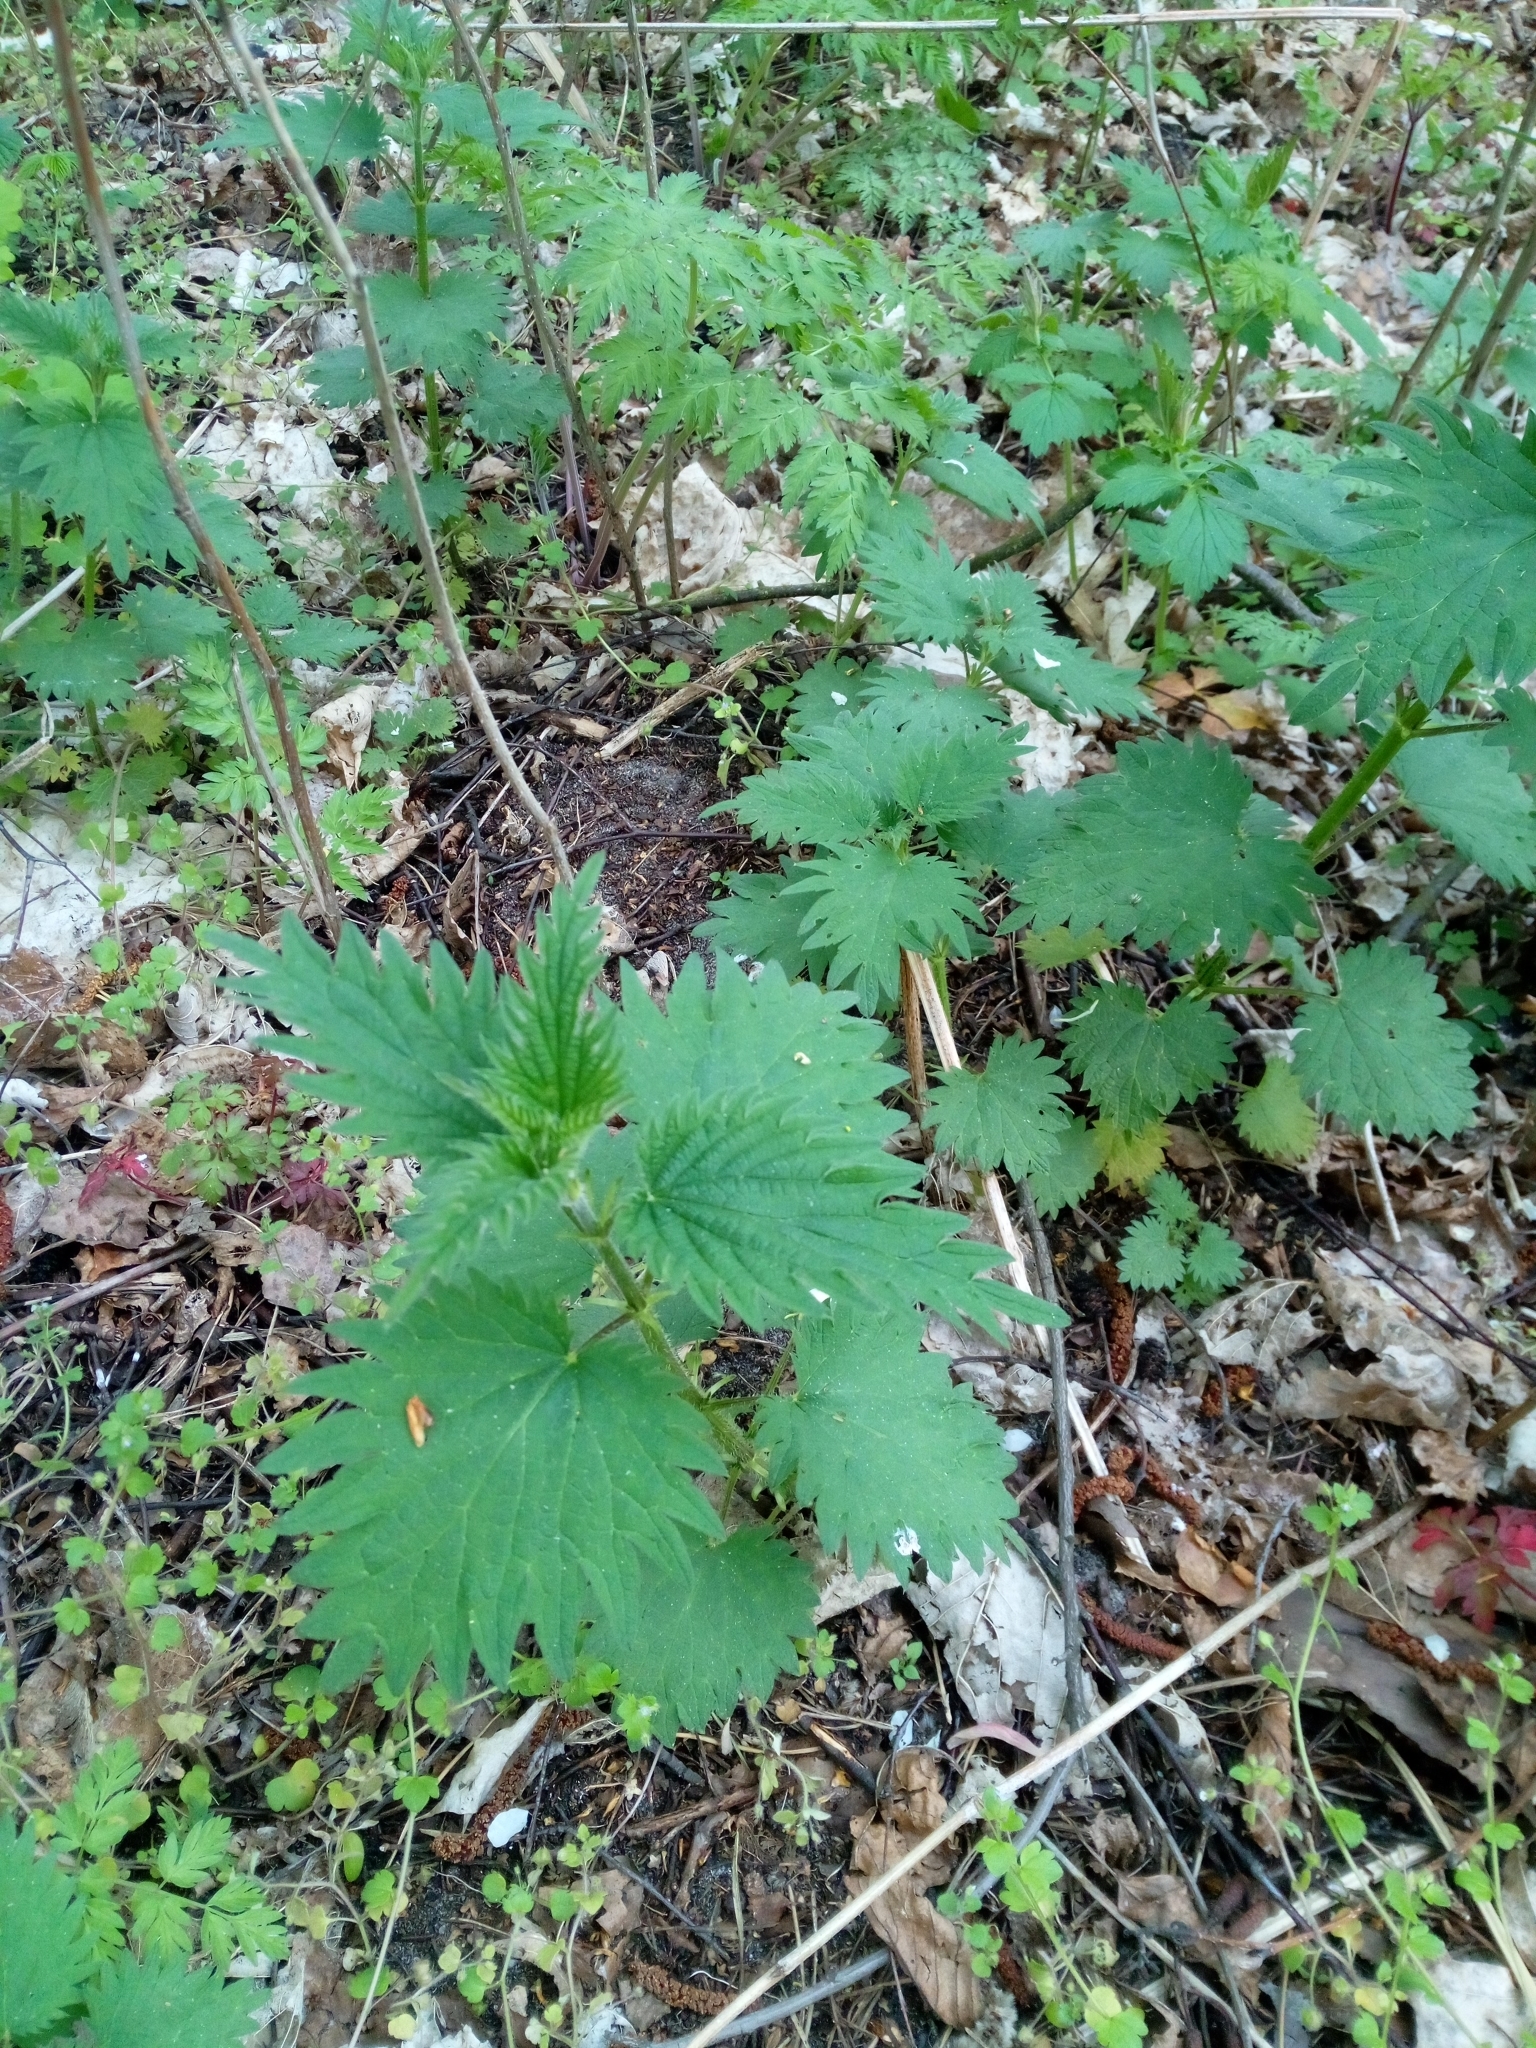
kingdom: Plantae
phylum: Tracheophyta
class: Magnoliopsida
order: Rosales
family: Urticaceae
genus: Urtica
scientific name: Urtica dioica
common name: Common nettle
